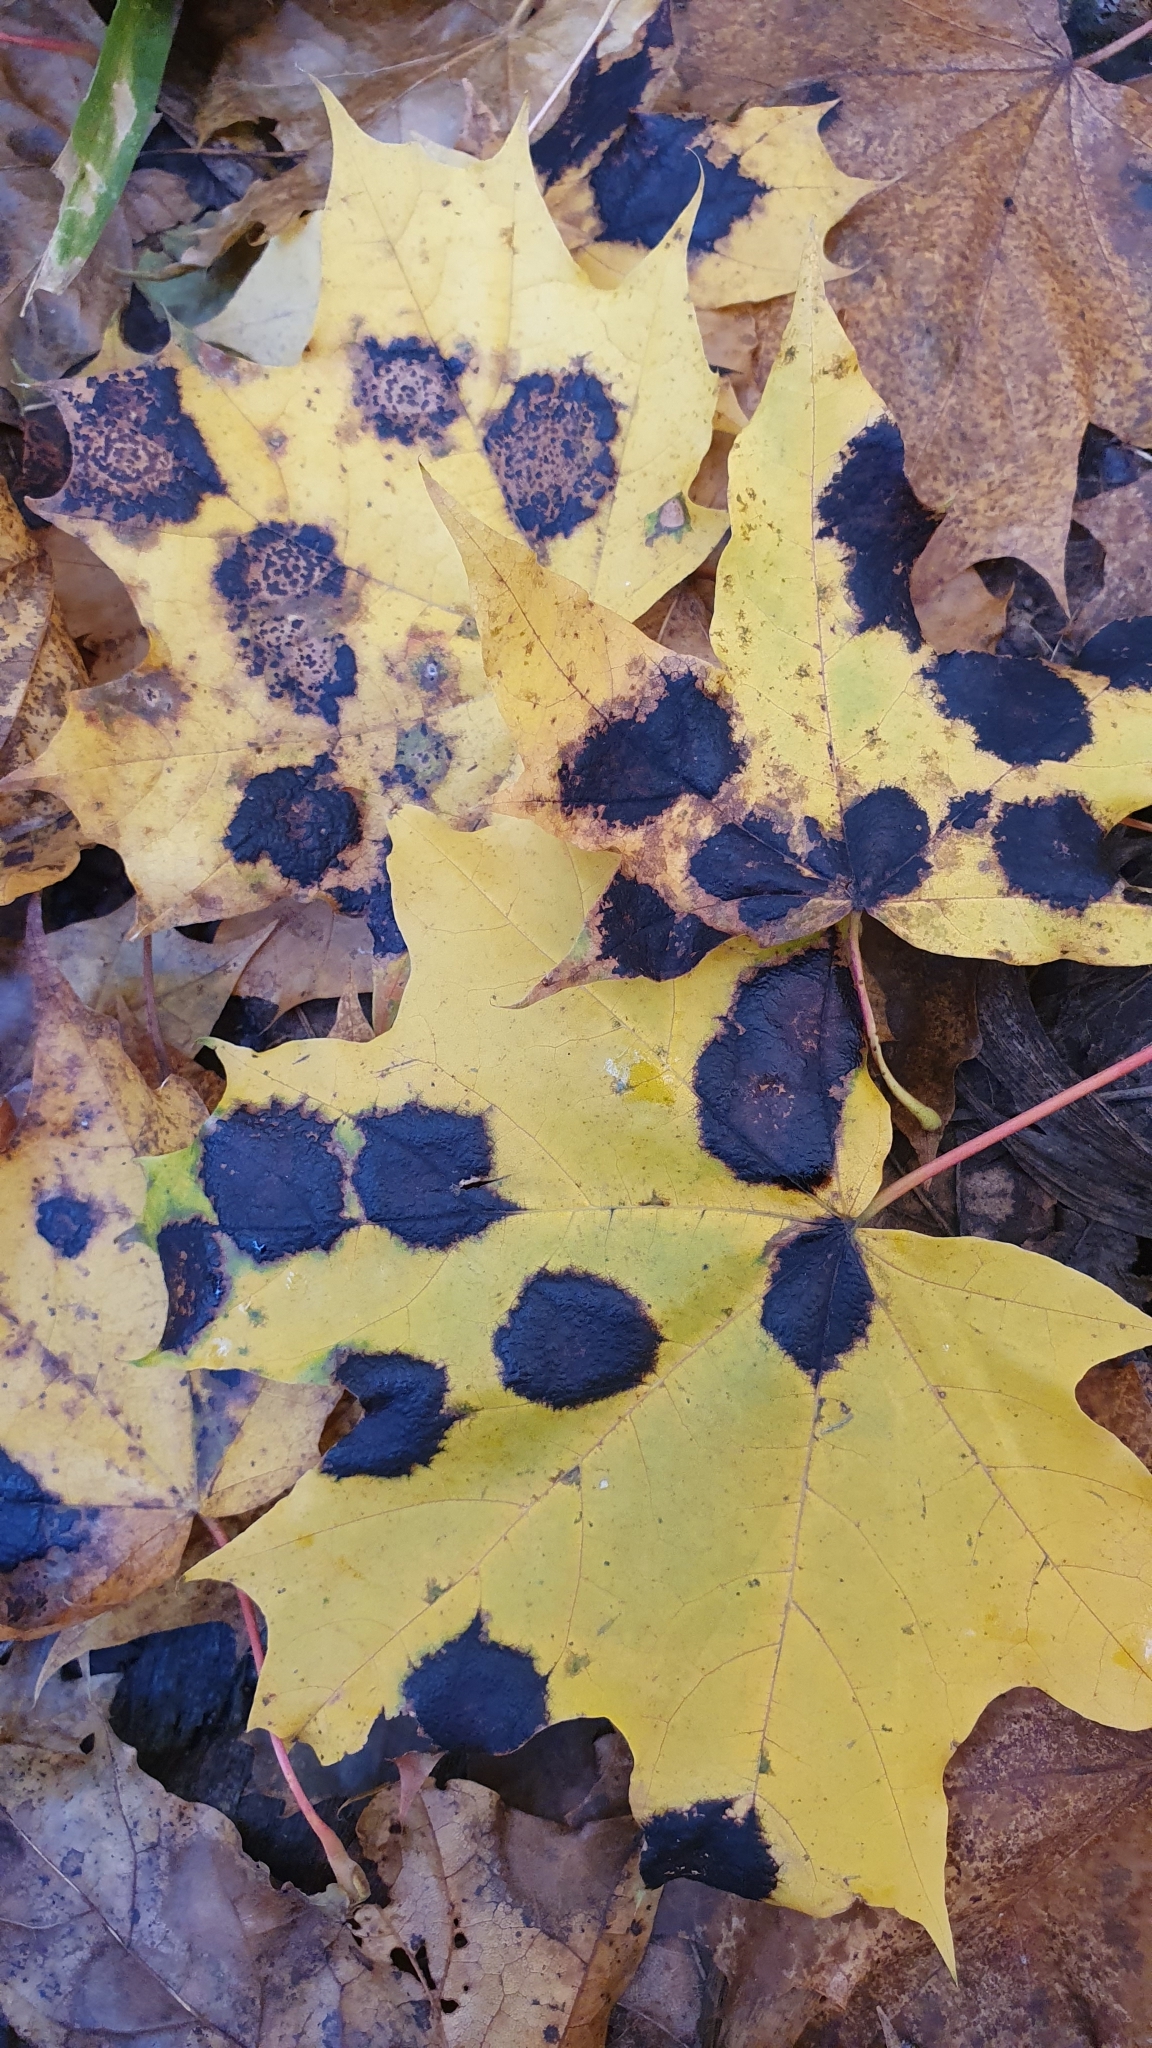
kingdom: Fungi
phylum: Ascomycota
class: Leotiomycetes
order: Rhytismatales
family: Rhytismataceae
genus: Rhytisma
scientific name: Rhytisma acerinum
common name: European tar spot
